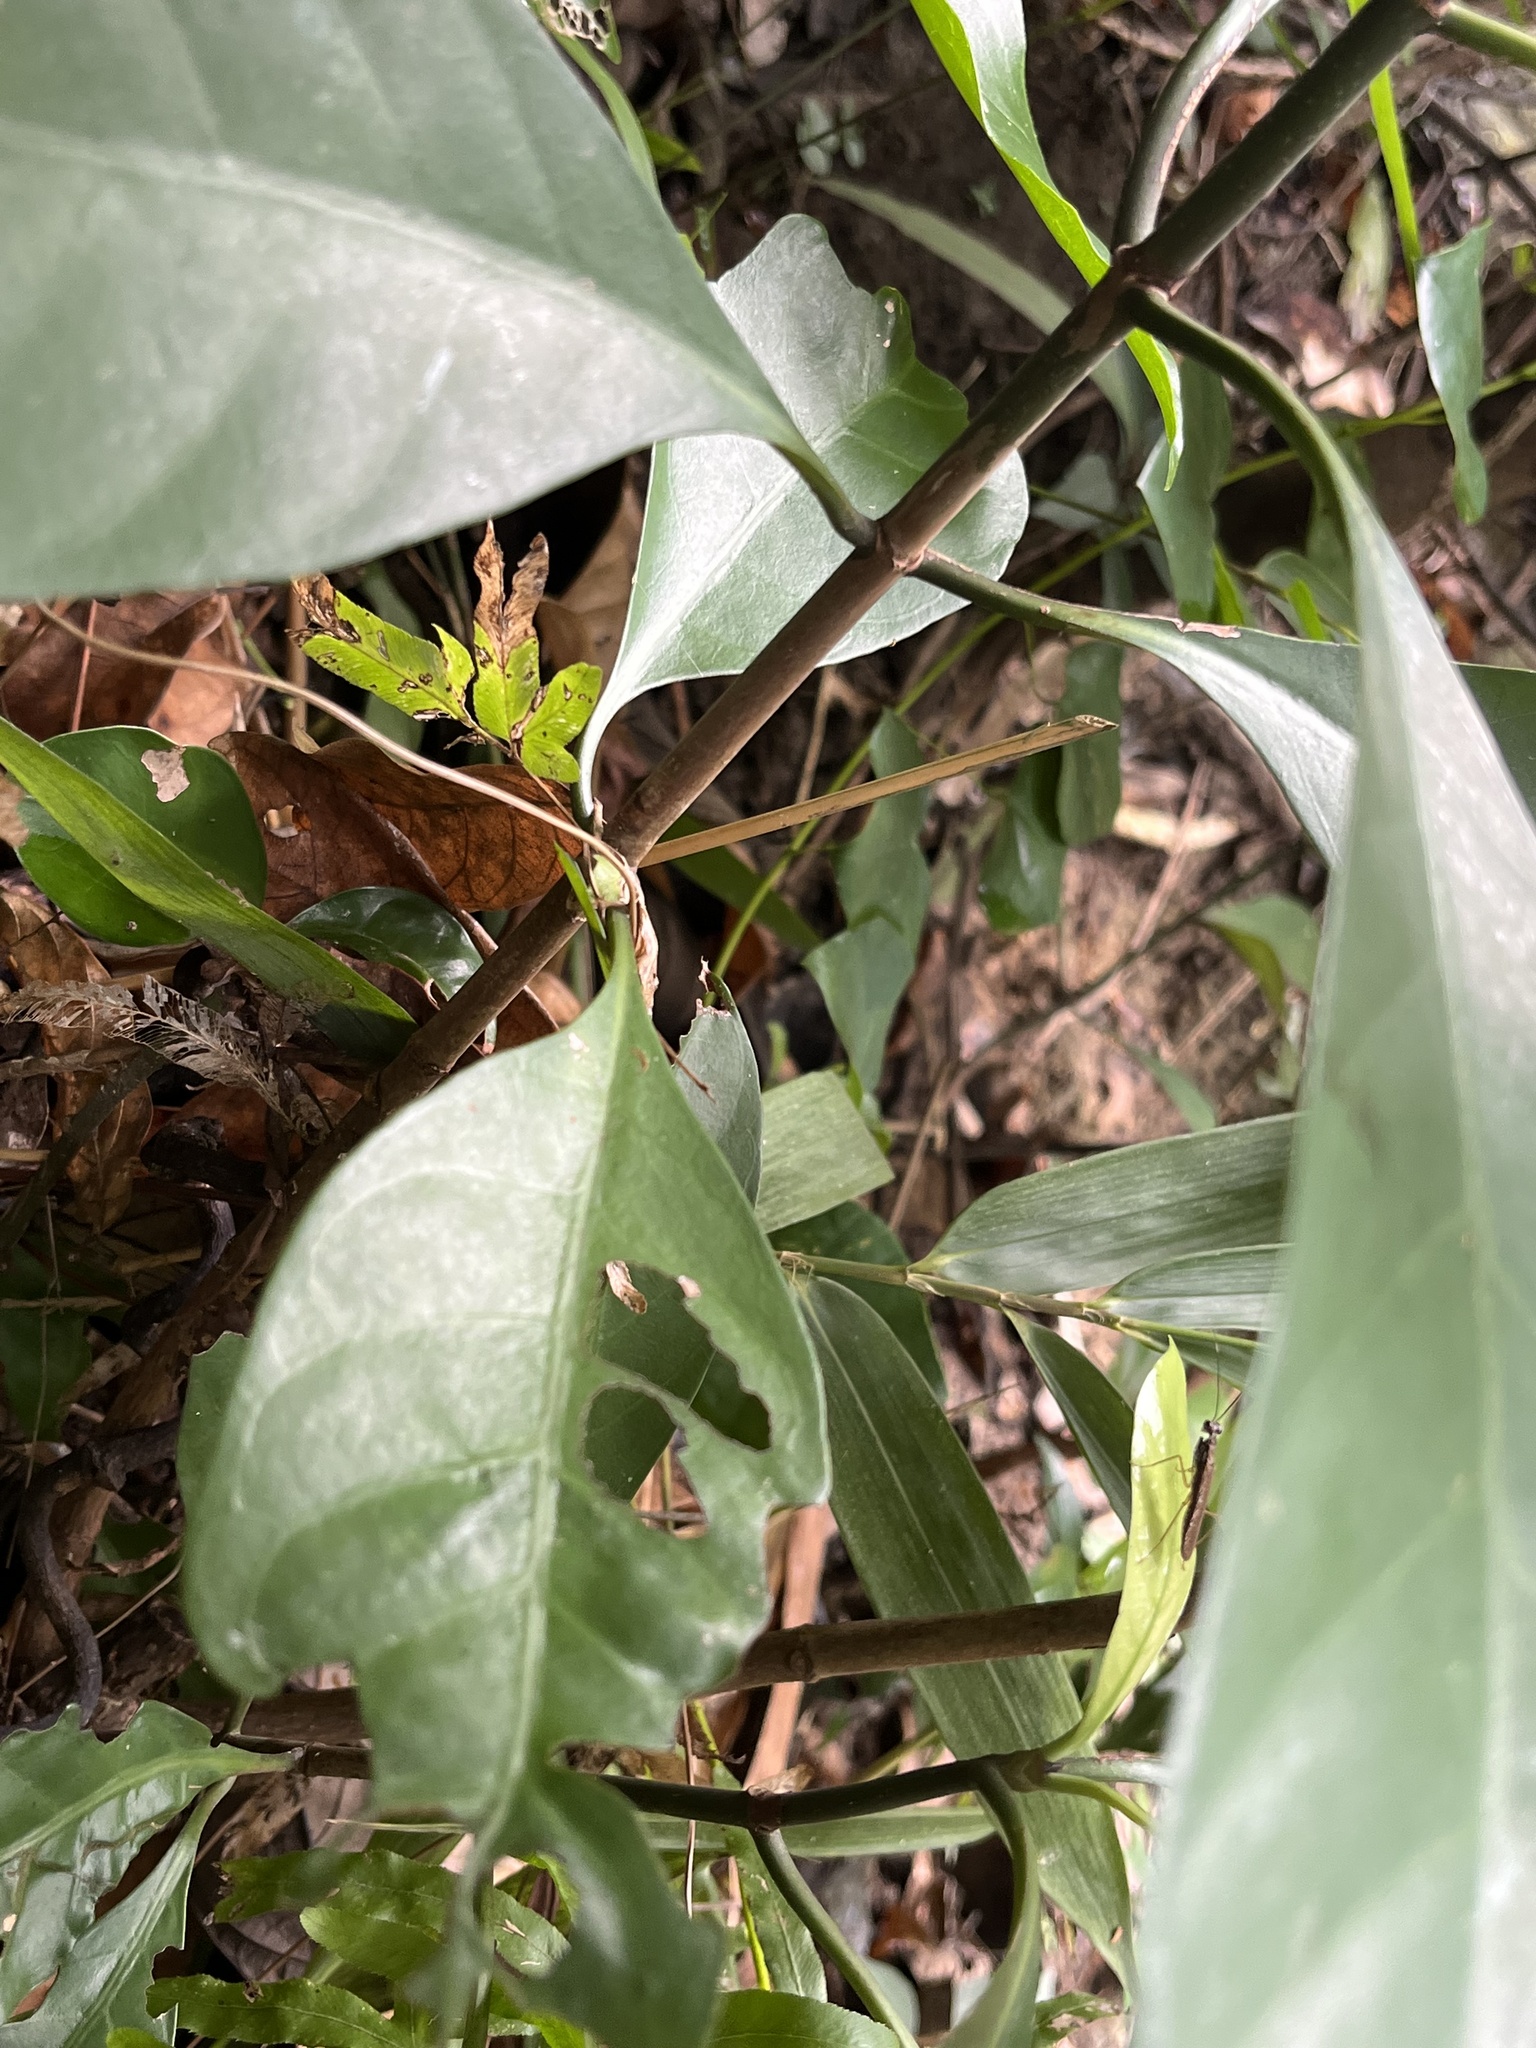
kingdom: Animalia
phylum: Arthropoda
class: Insecta
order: Mantodea
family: Gonypetidae
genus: Spilomantis
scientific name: Spilomantis occipitalis
